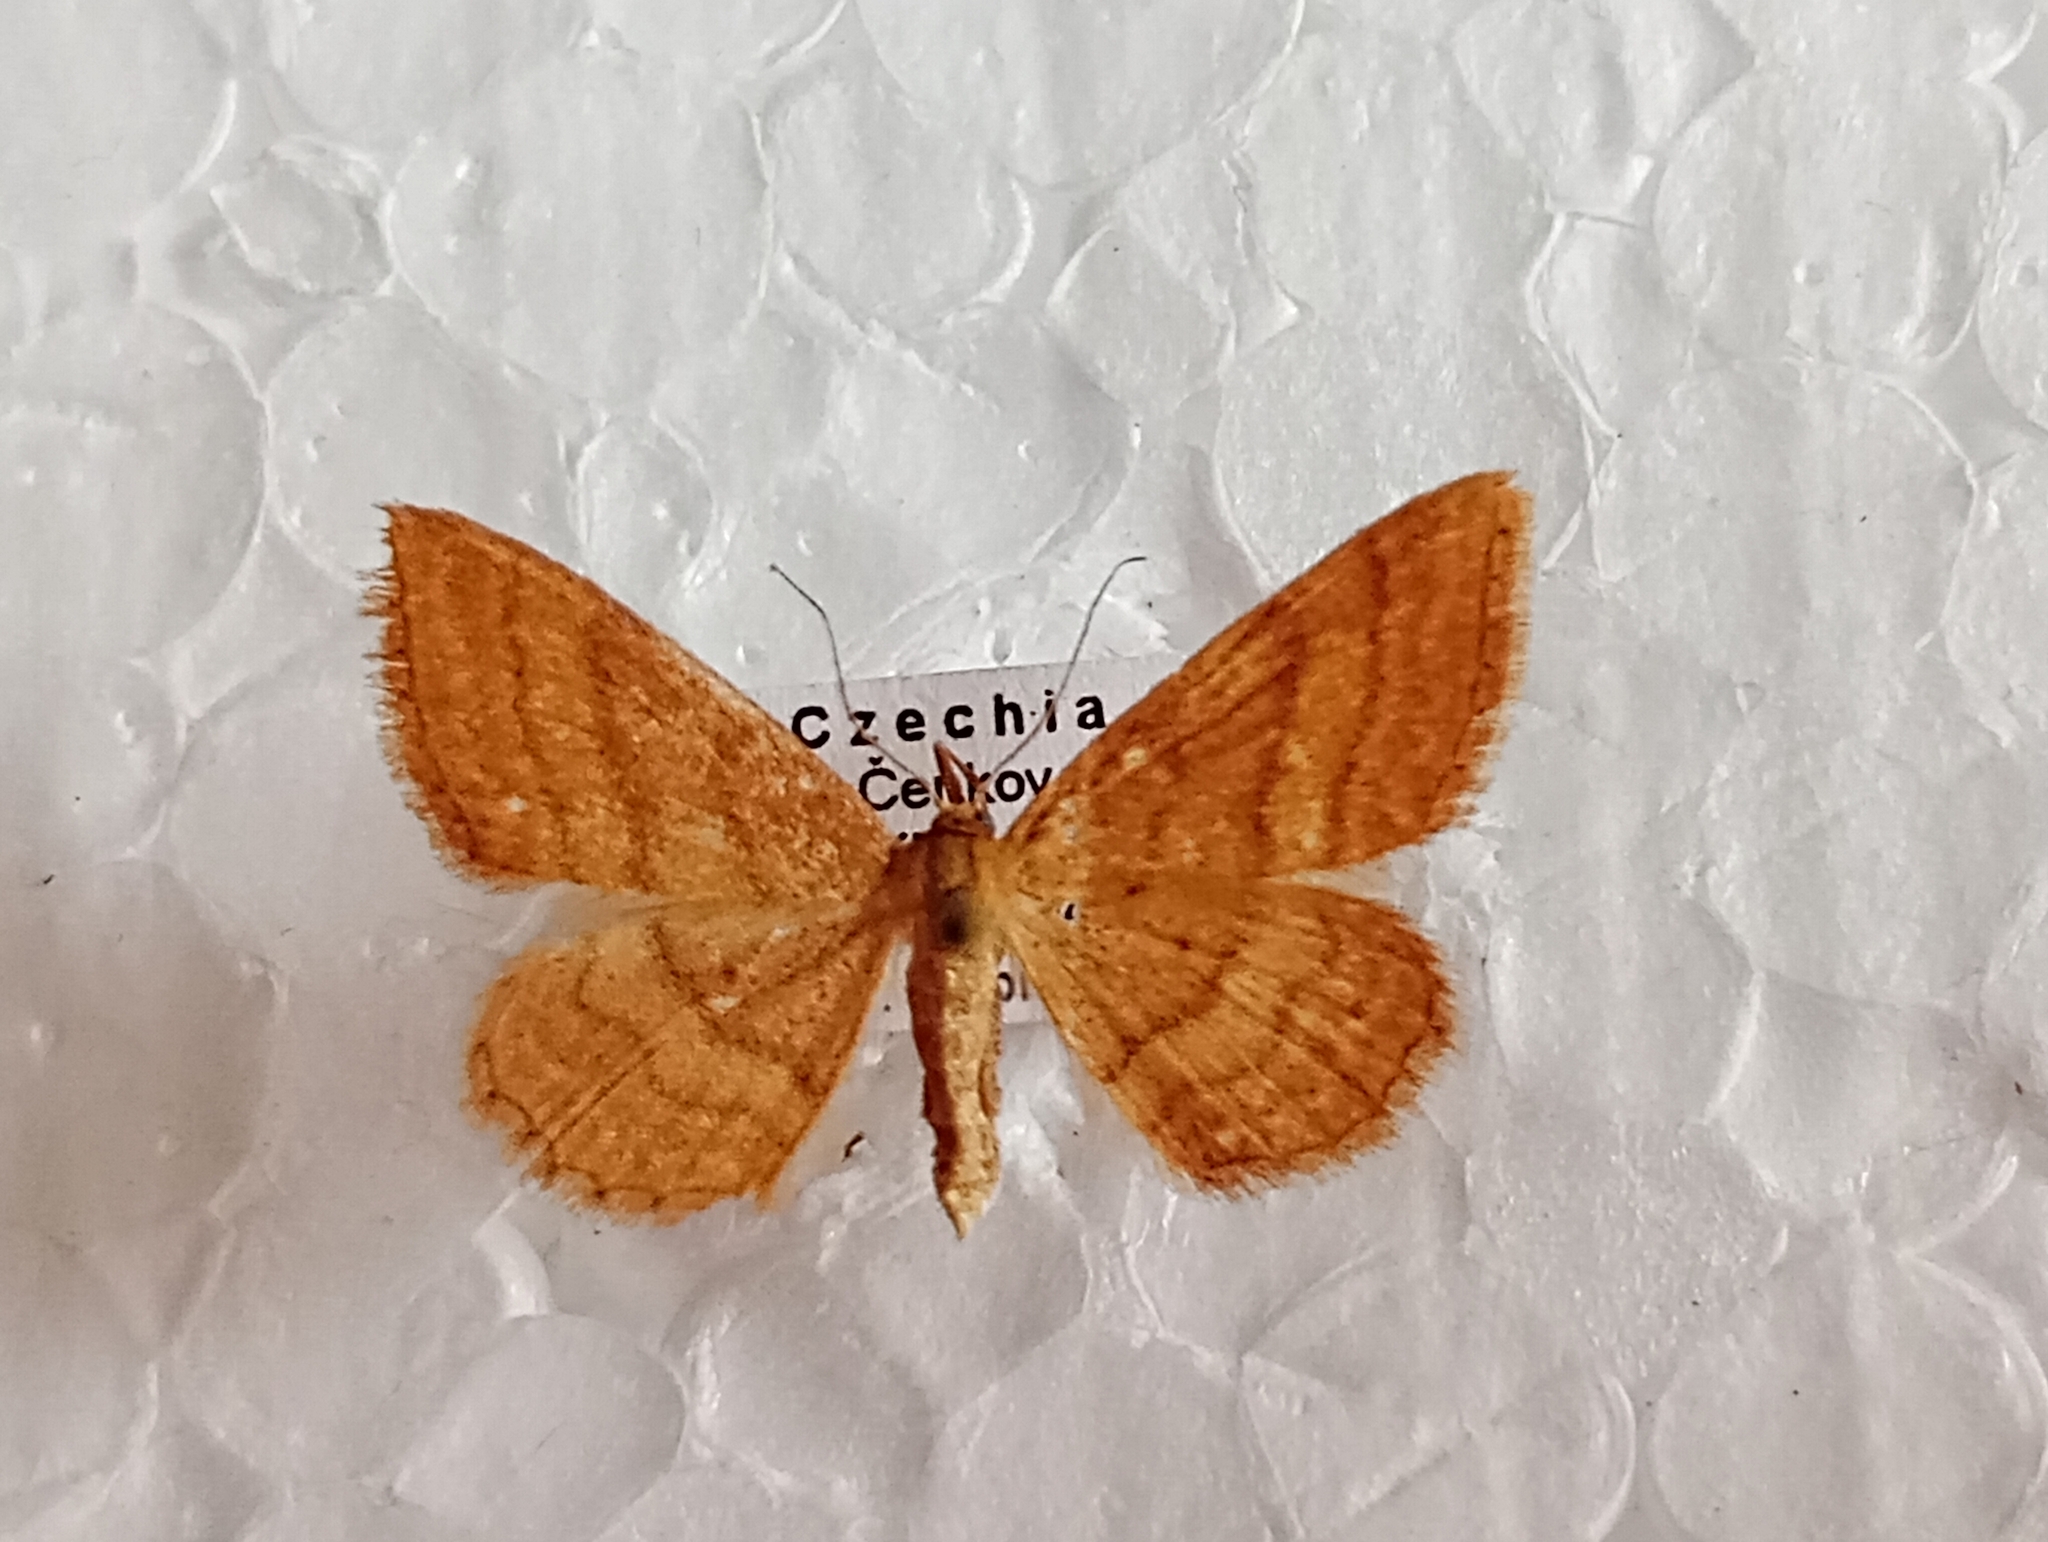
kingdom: Animalia
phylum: Arthropoda
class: Insecta
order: Lepidoptera
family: Geometridae
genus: Idaea
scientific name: Idaea ochrata
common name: Bright wave
